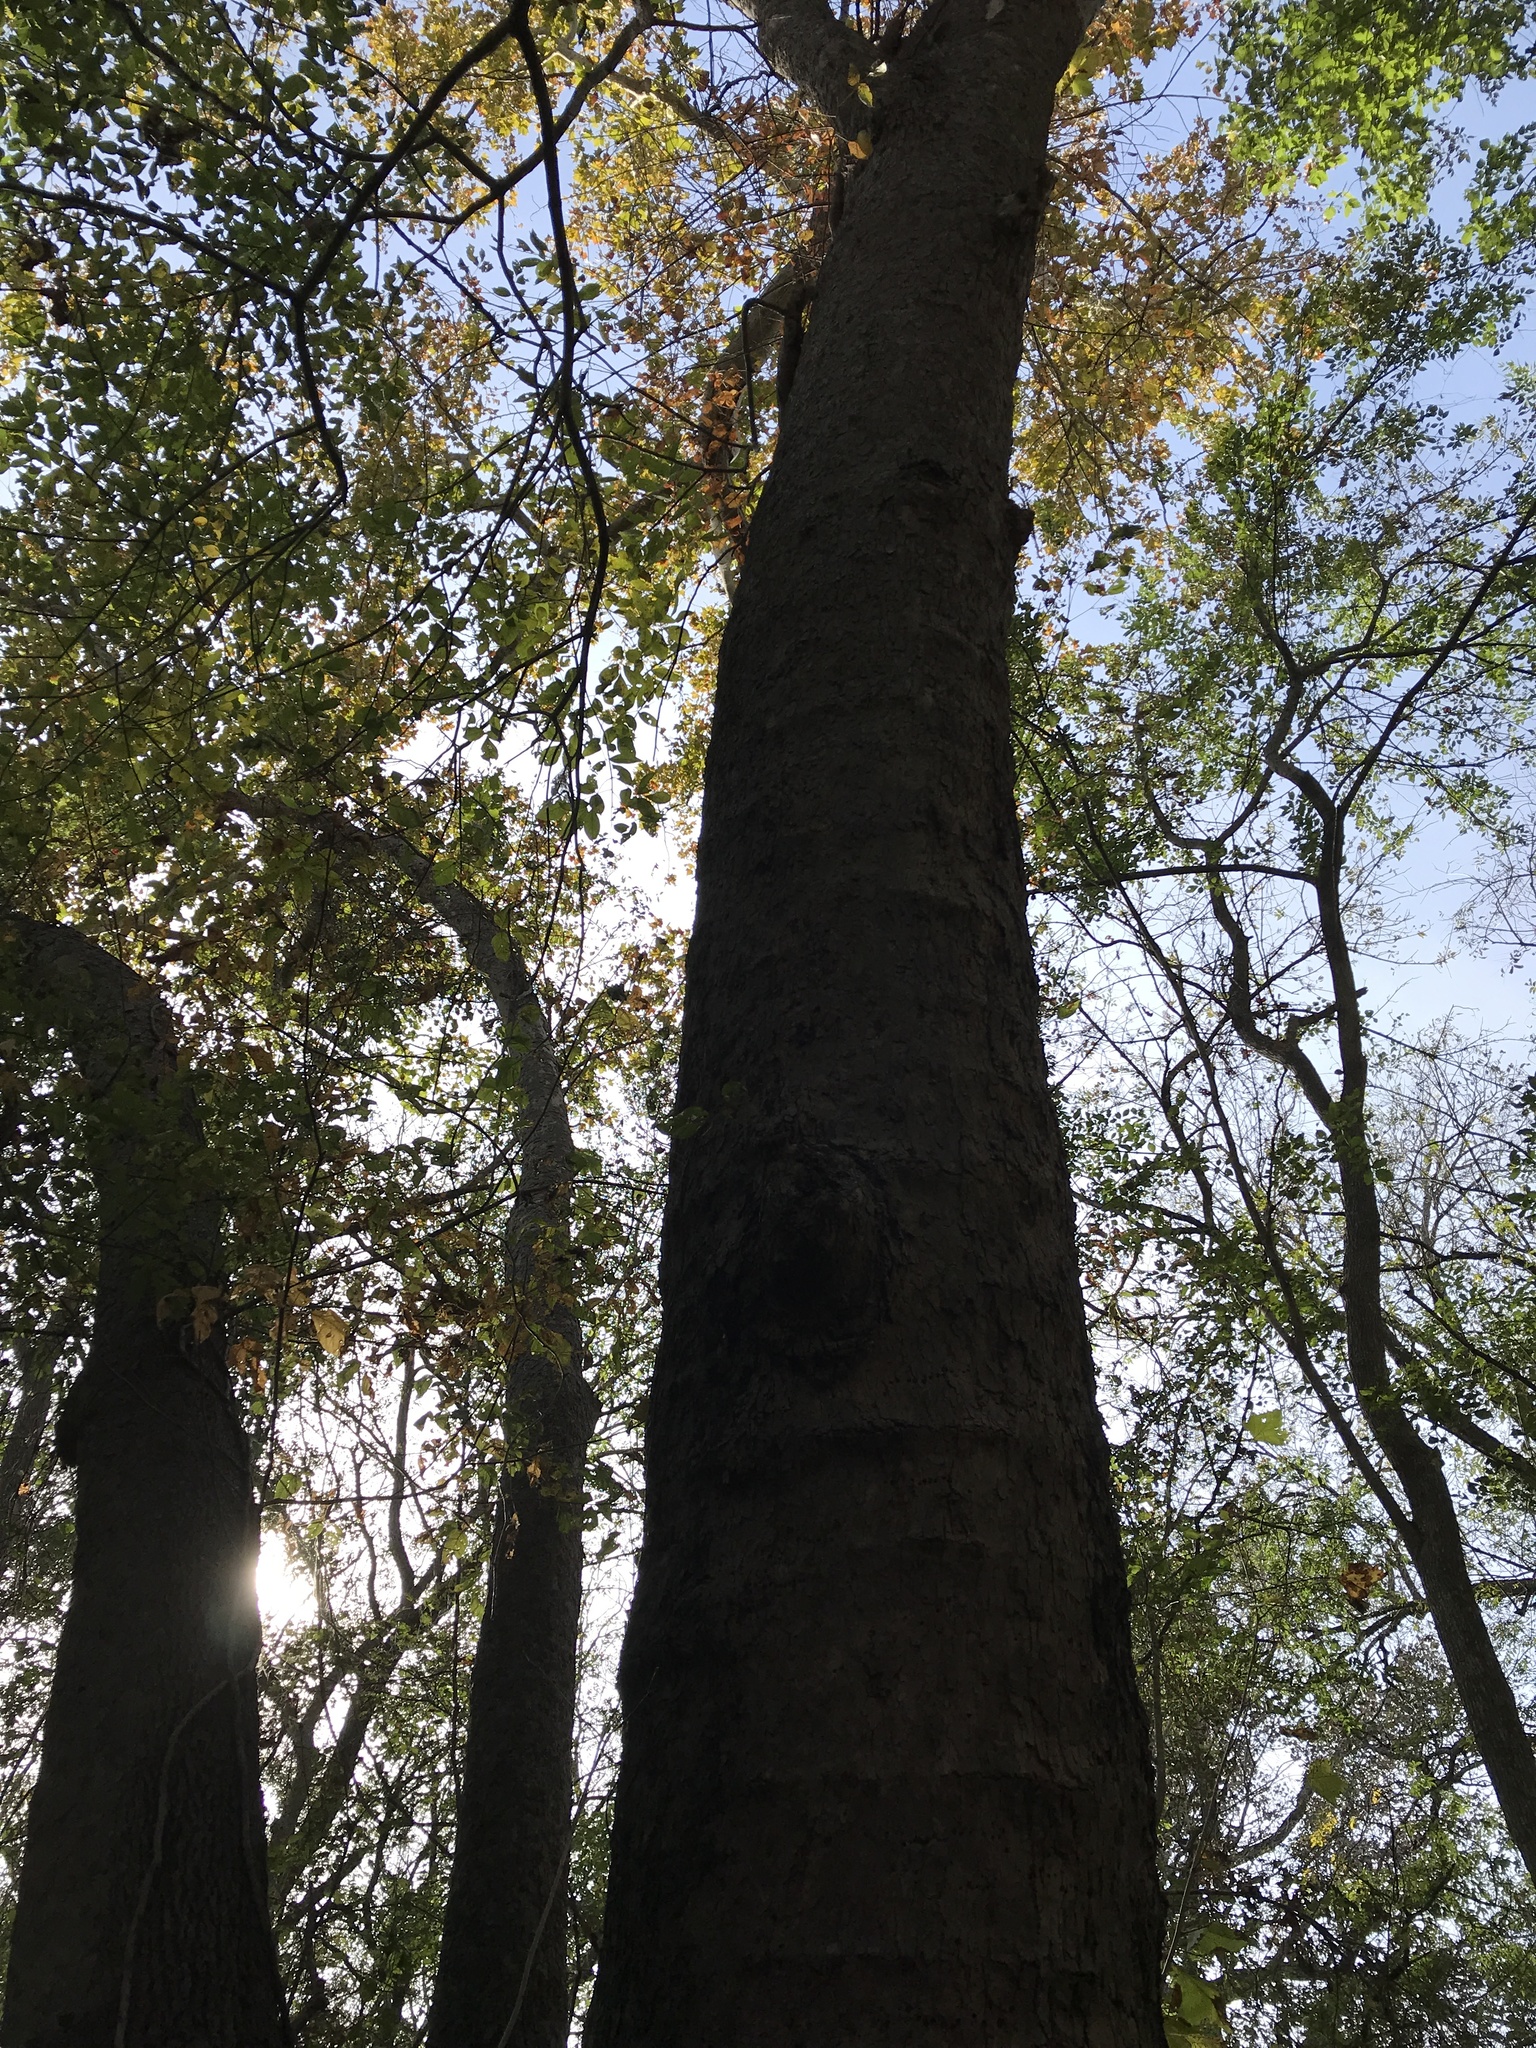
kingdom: Plantae
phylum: Tracheophyta
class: Magnoliopsida
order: Proteales
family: Platanaceae
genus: Platanus
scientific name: Platanus occidentalis
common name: American sycamore
